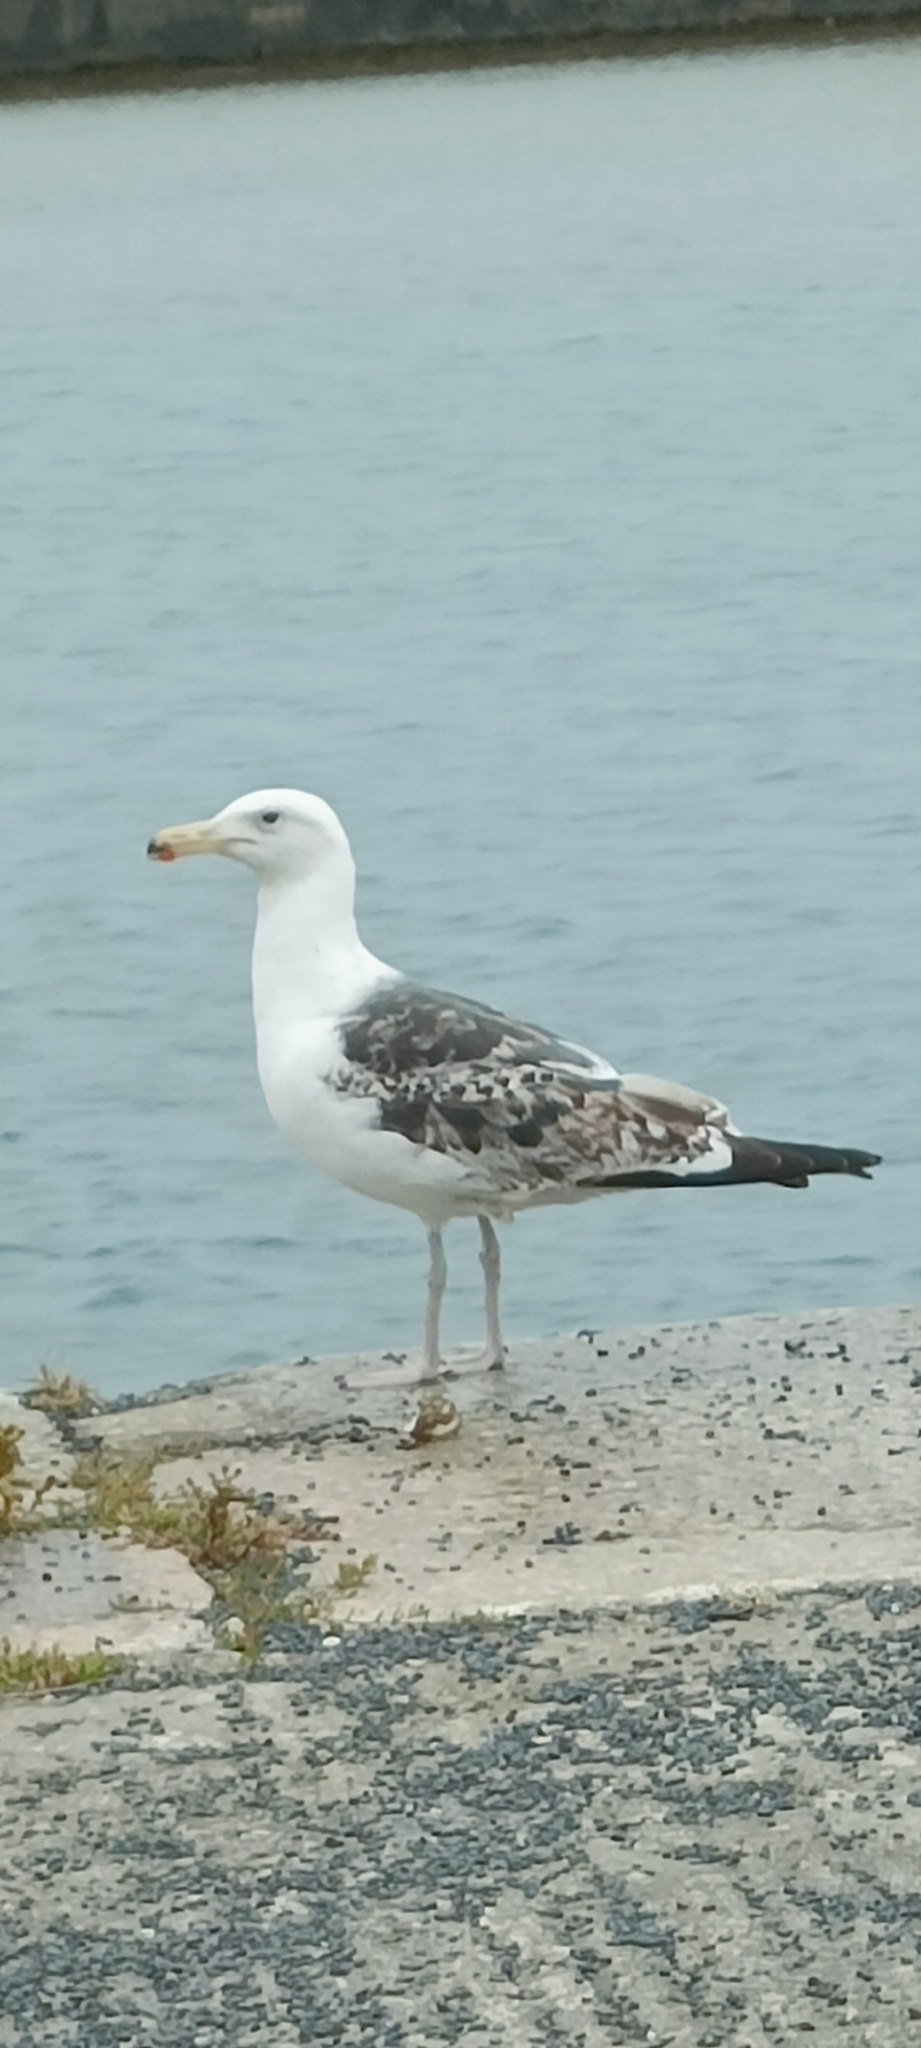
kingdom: Animalia
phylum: Chordata
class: Aves
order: Charadriiformes
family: Laridae
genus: Larus
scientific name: Larus marinus
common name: Great black-backed gull
